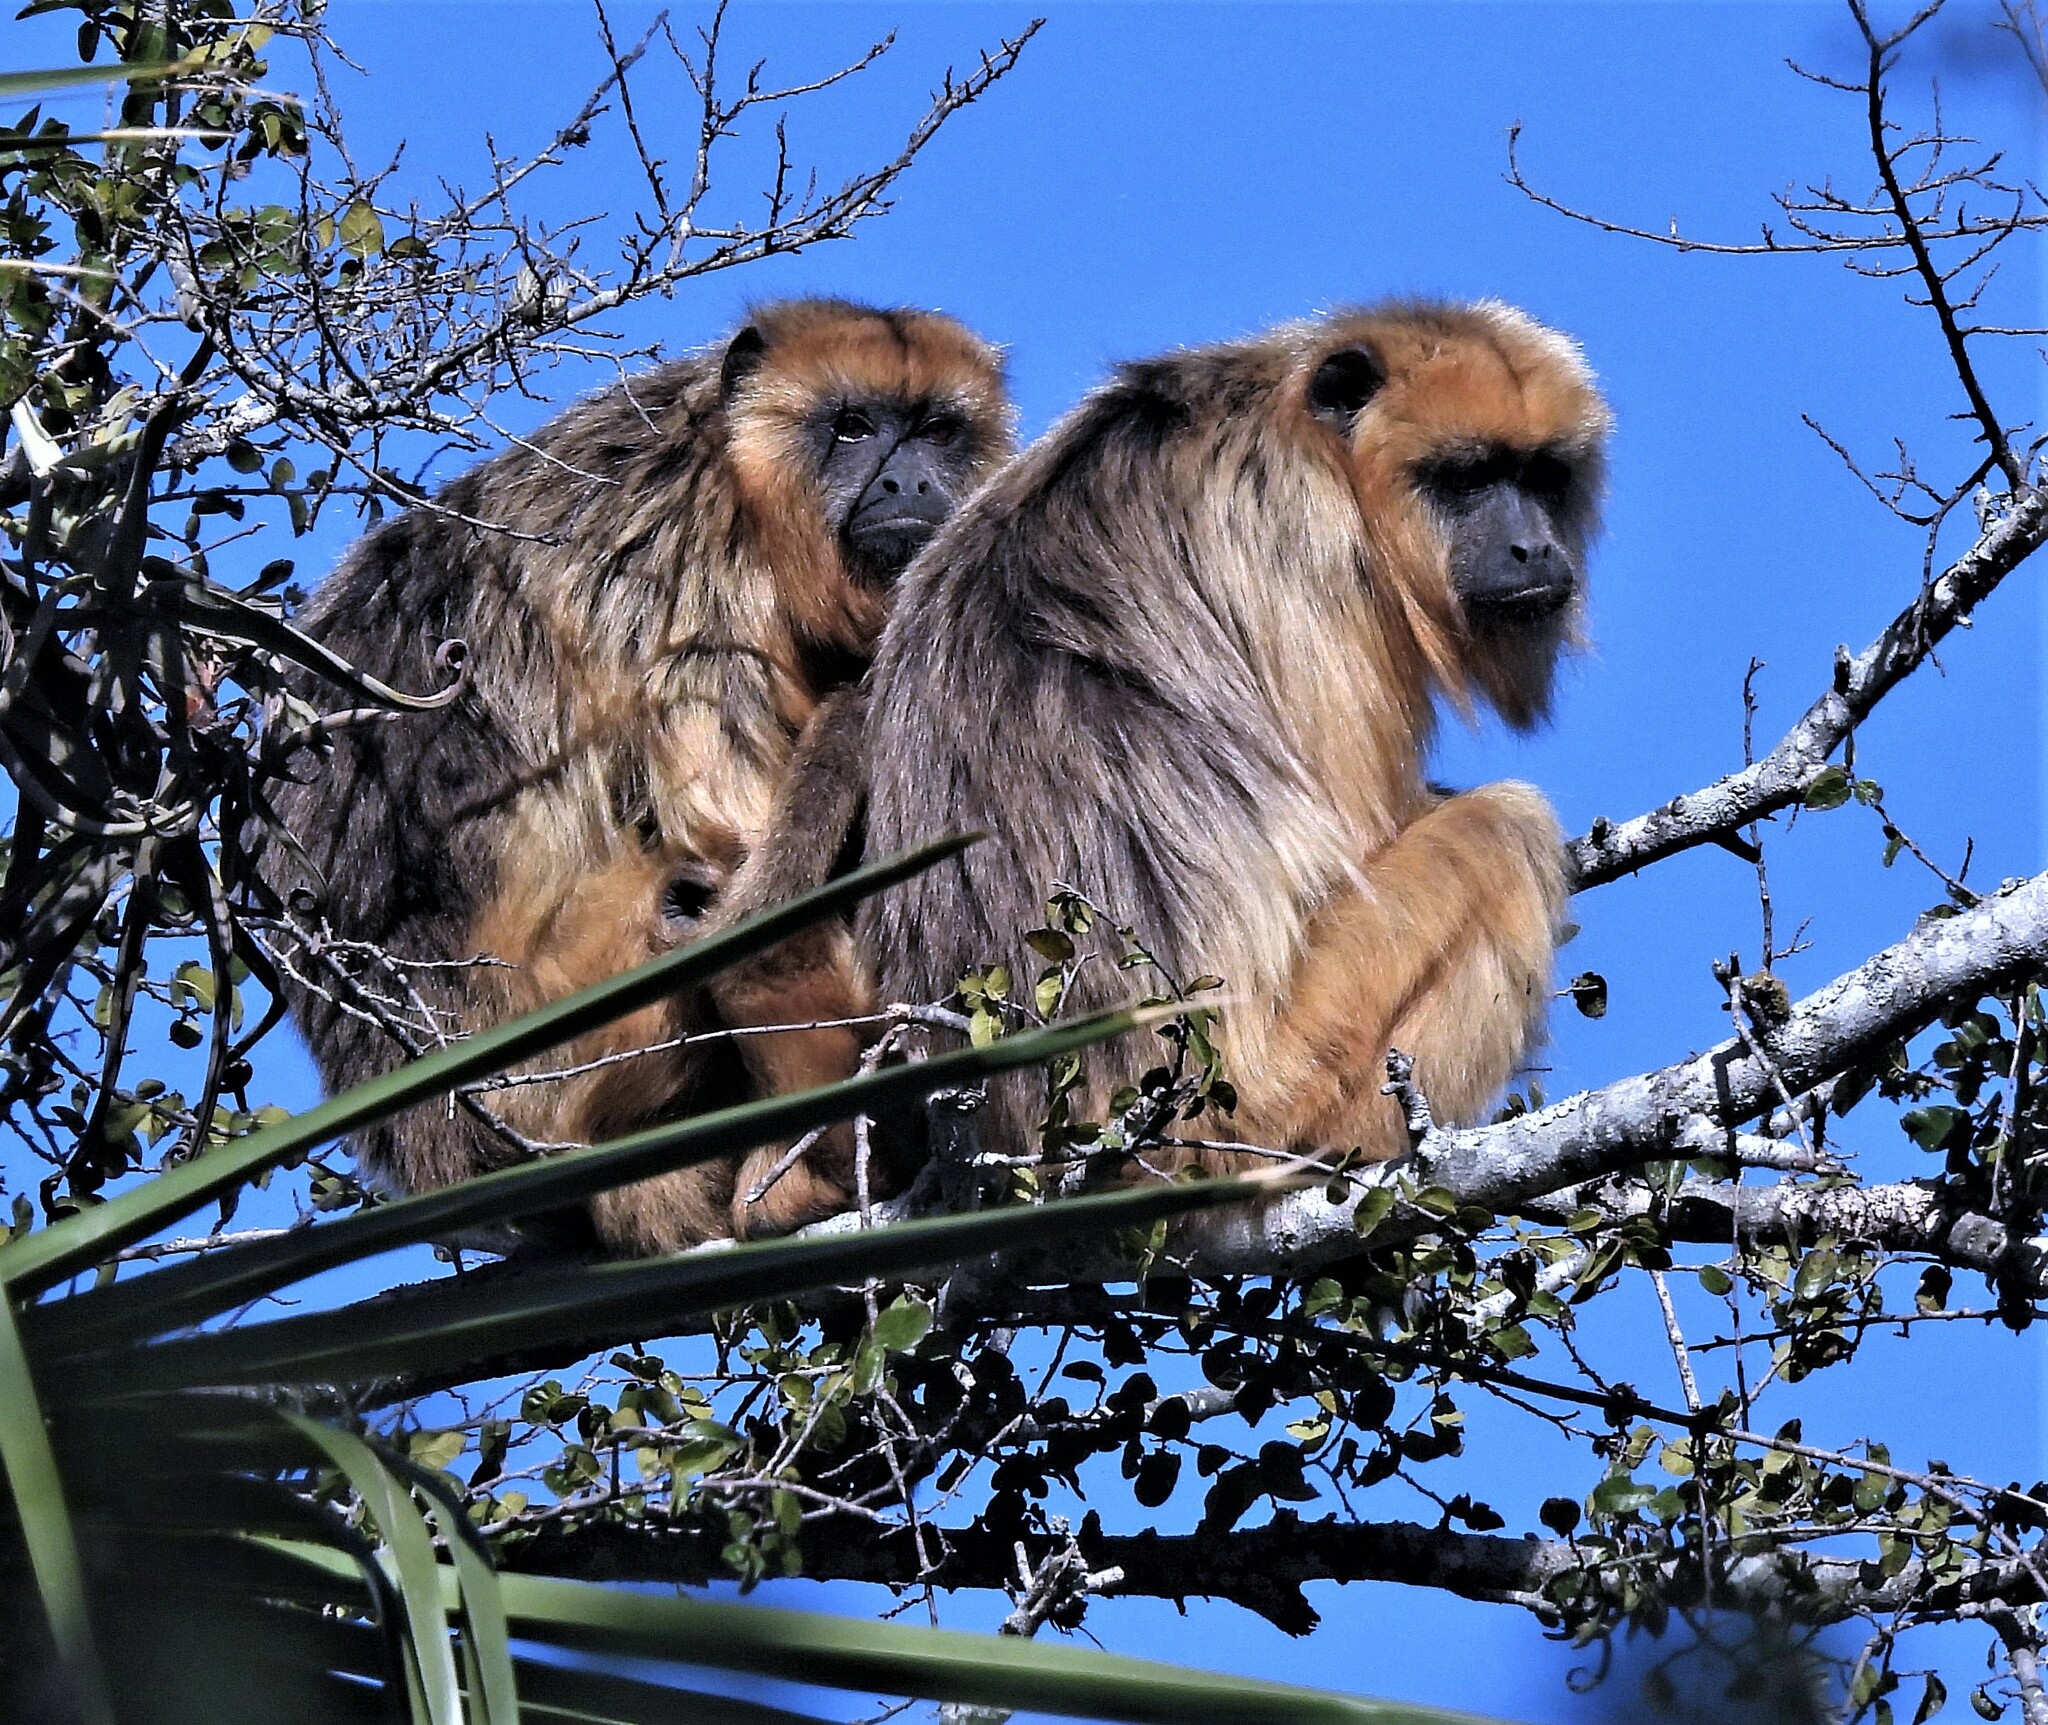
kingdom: Animalia
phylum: Chordata
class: Mammalia
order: Primates
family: Atelidae
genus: Alouatta
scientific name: Alouatta caraya
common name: Black howler
